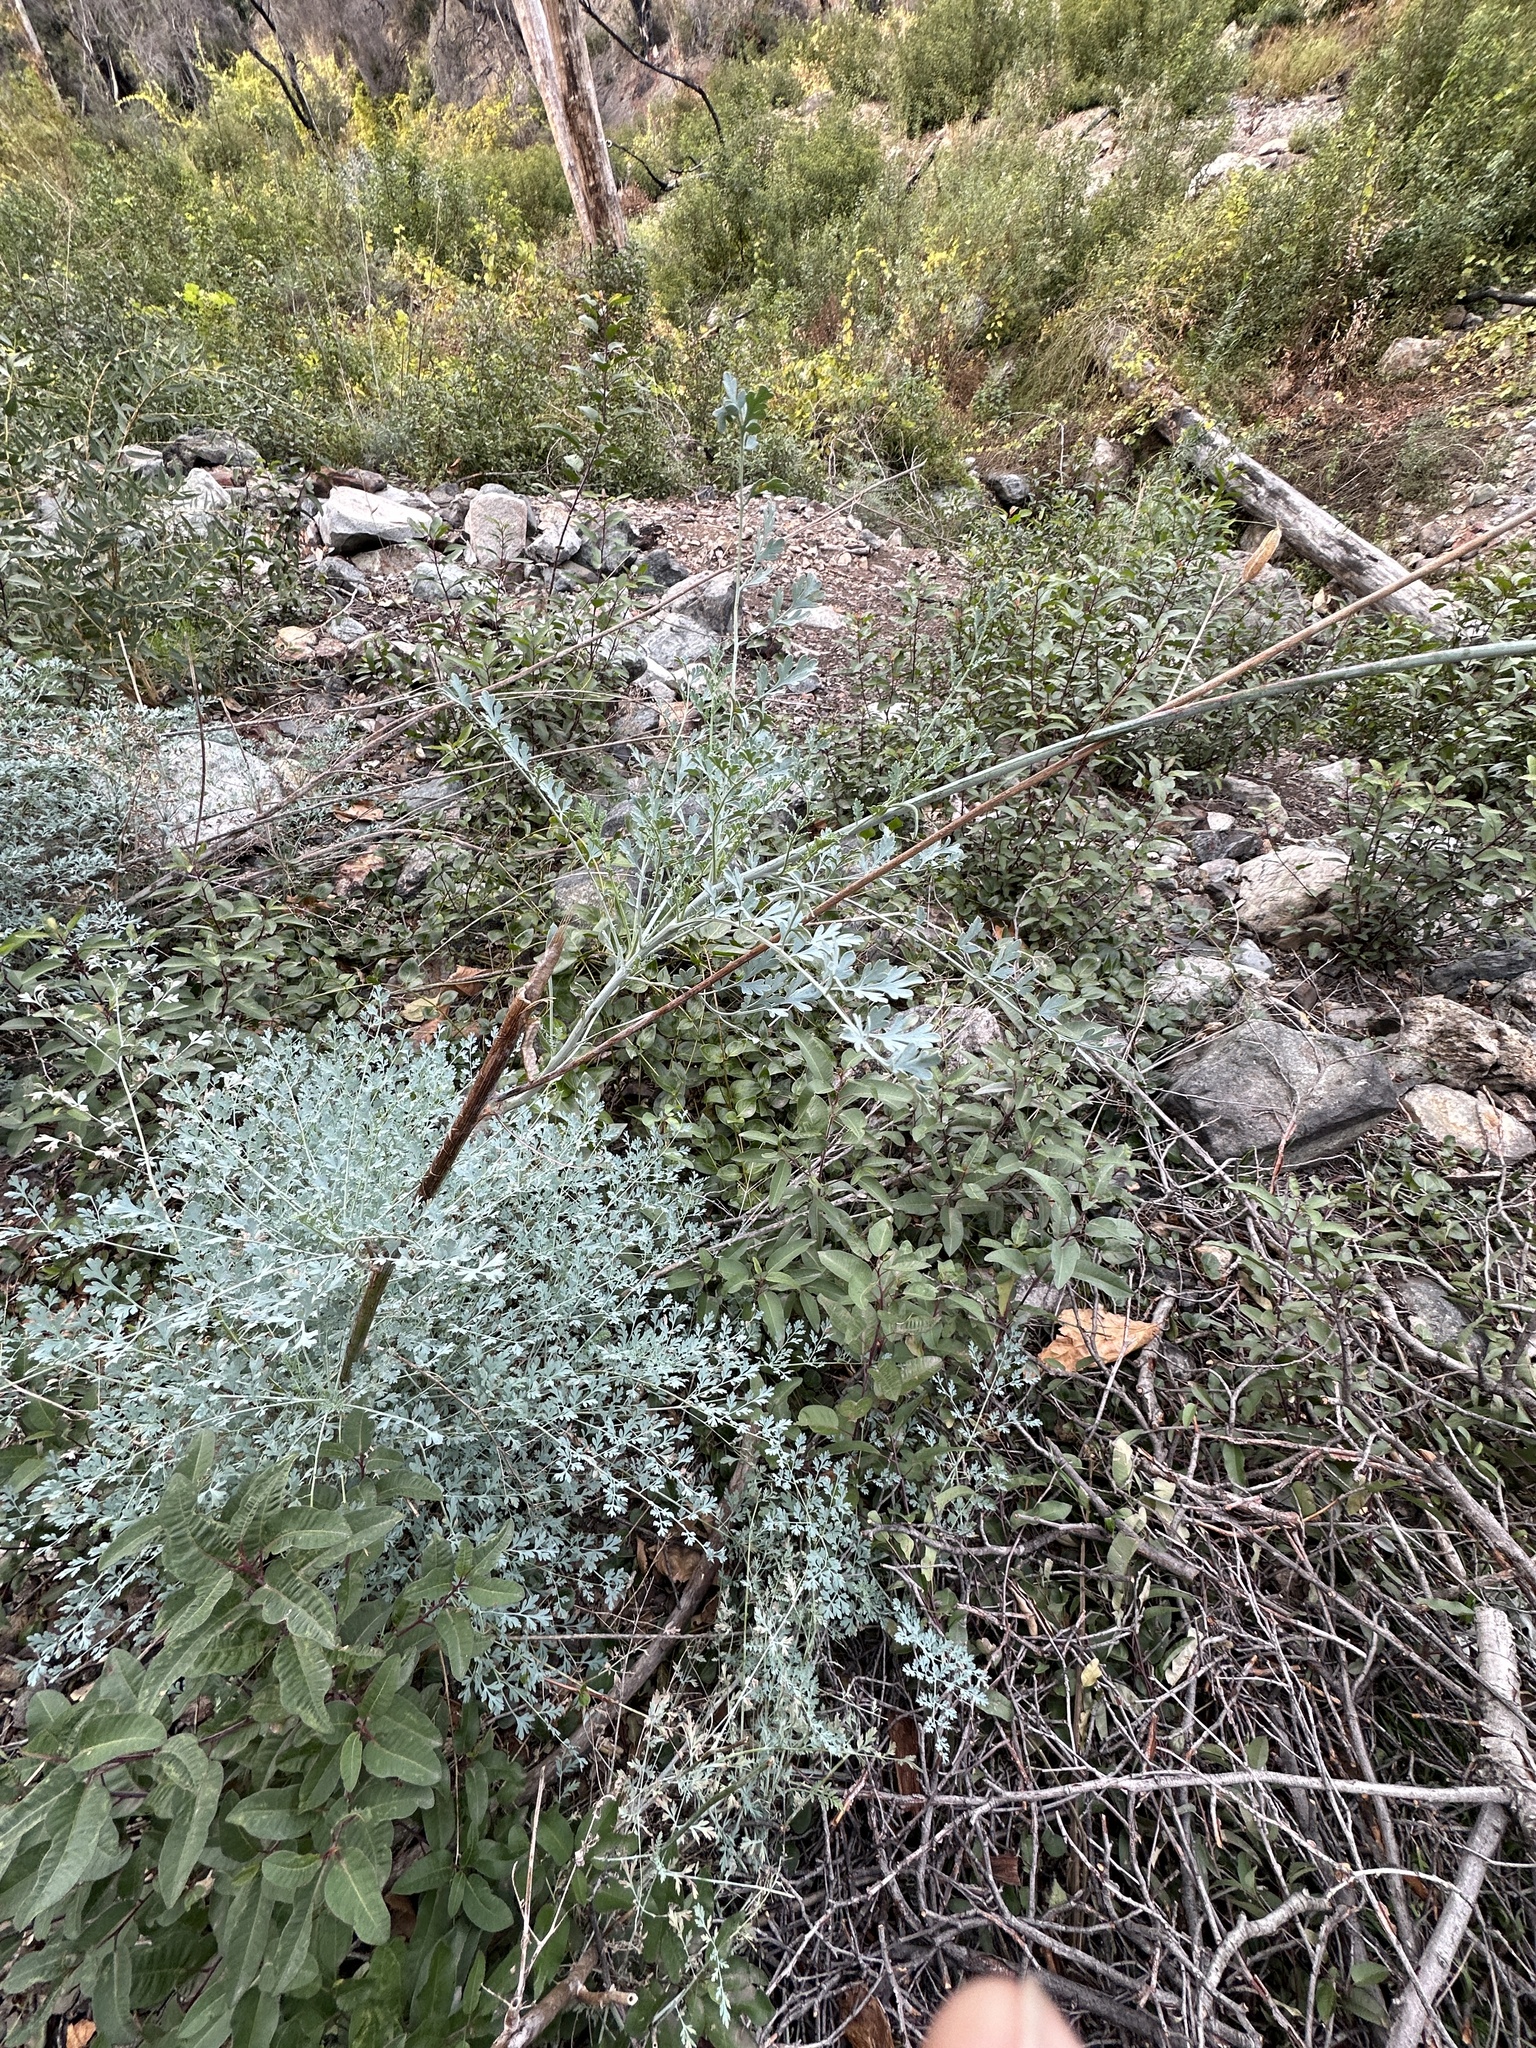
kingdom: Plantae
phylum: Tracheophyta
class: Magnoliopsida
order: Ranunculales
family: Papaveraceae
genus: Ehrendorferia
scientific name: Ehrendorferia chrysantha
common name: Golden eardrops
